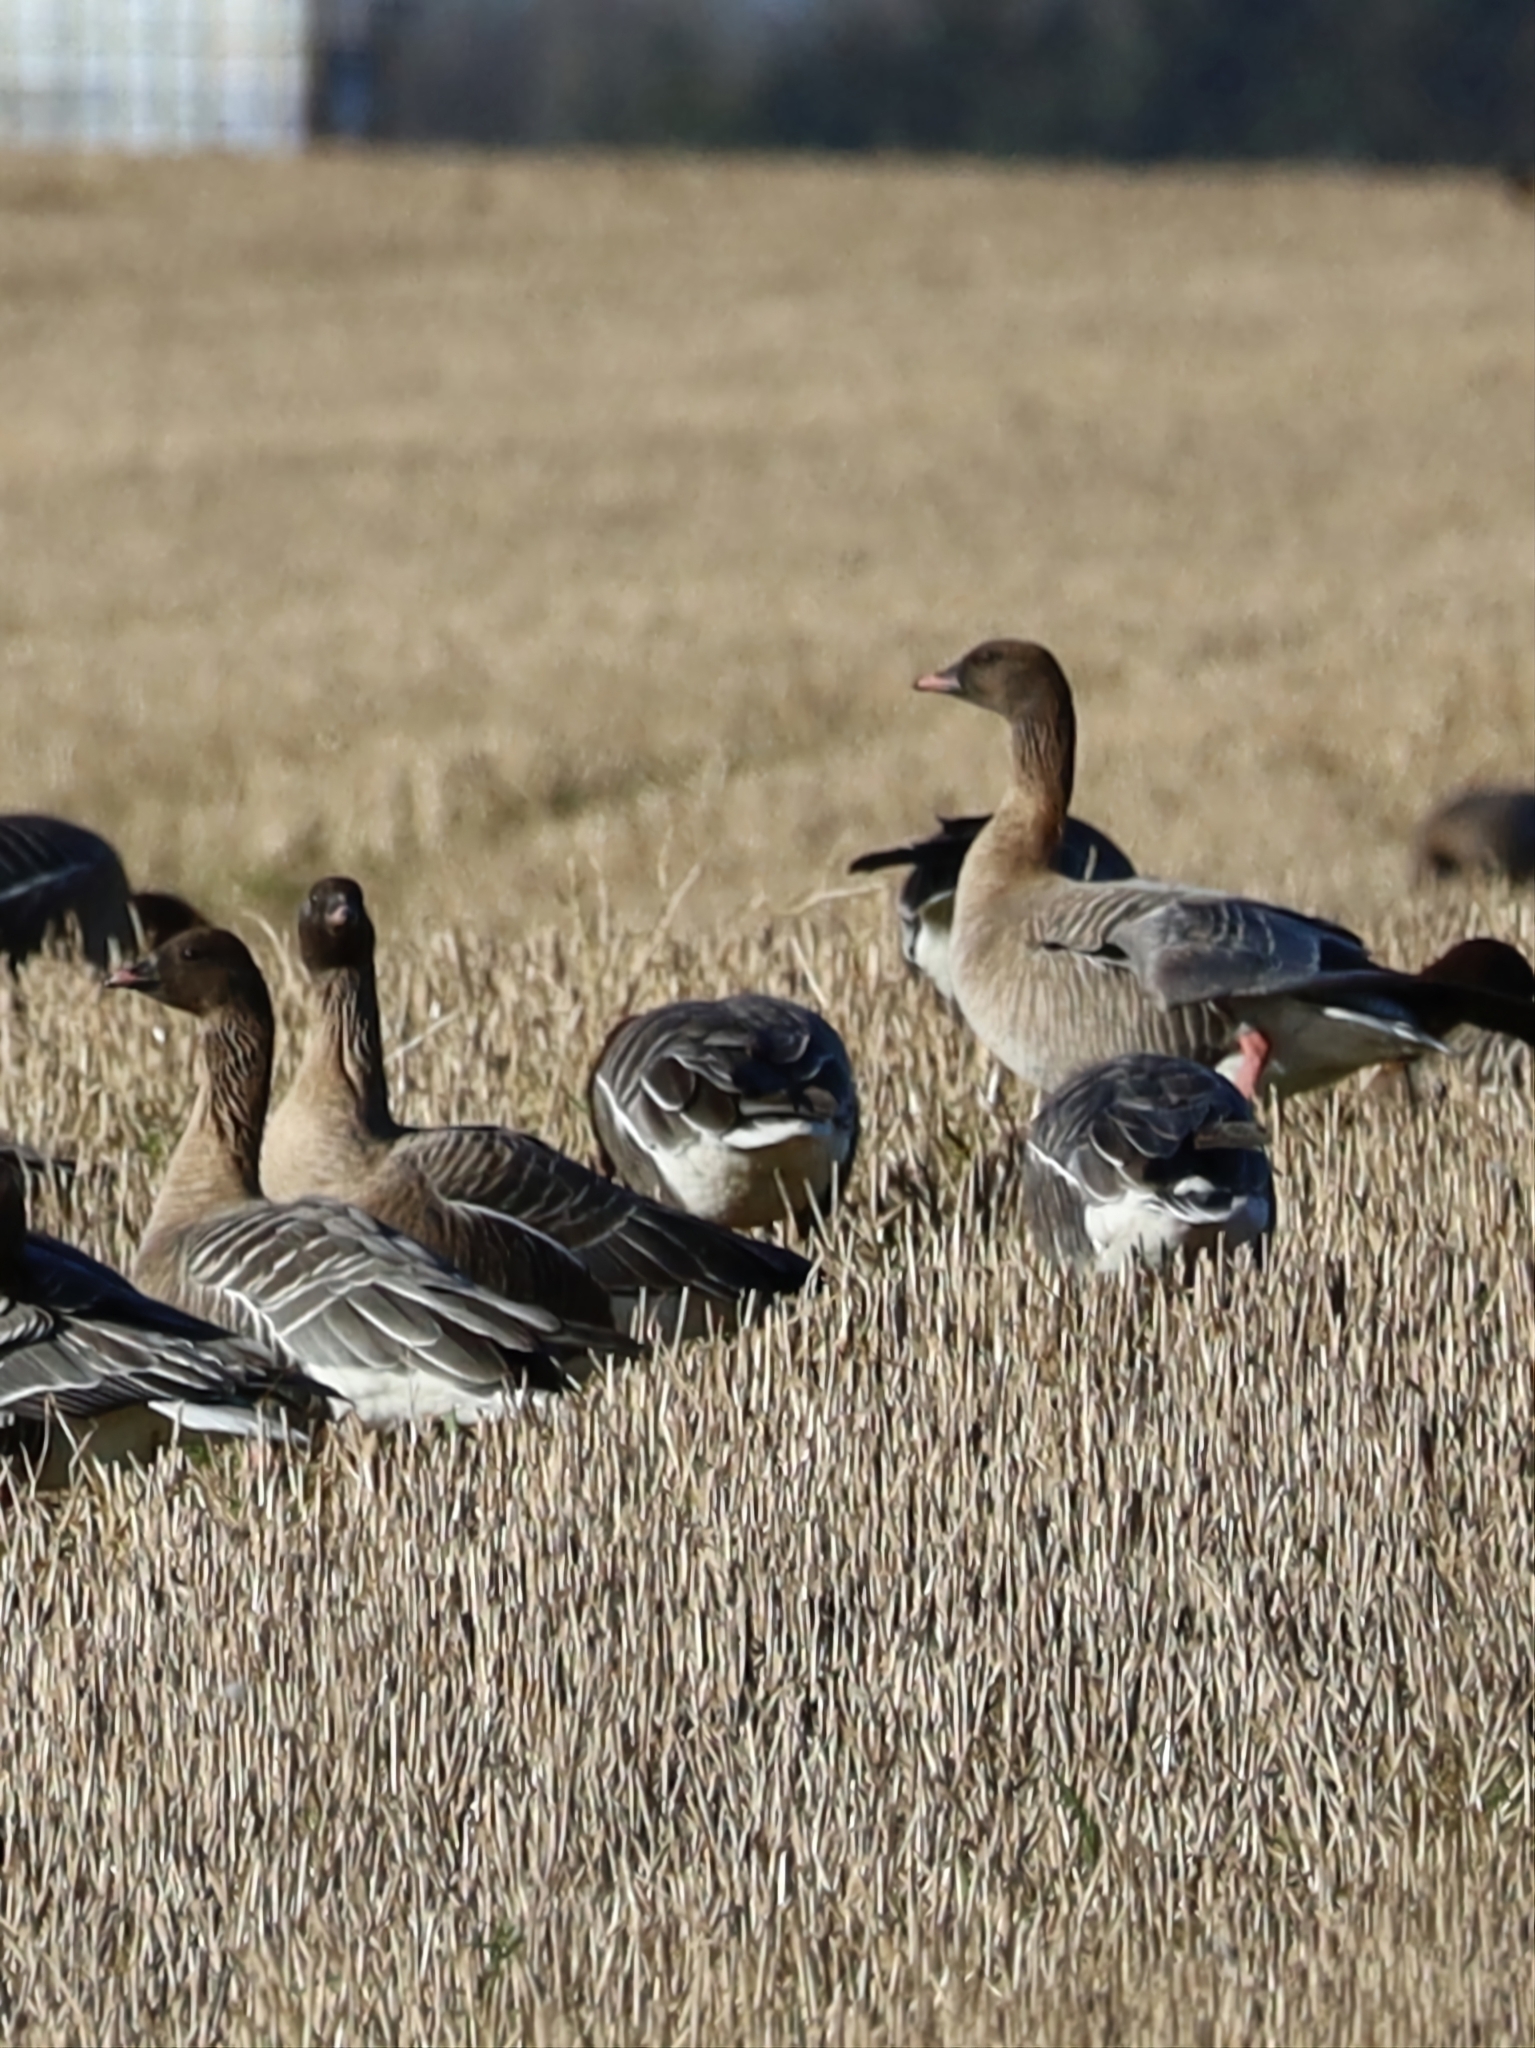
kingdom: Animalia
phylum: Chordata
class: Aves
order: Anseriformes
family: Anatidae
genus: Anser
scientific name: Anser brachyrhynchus
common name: Pink-footed goose
